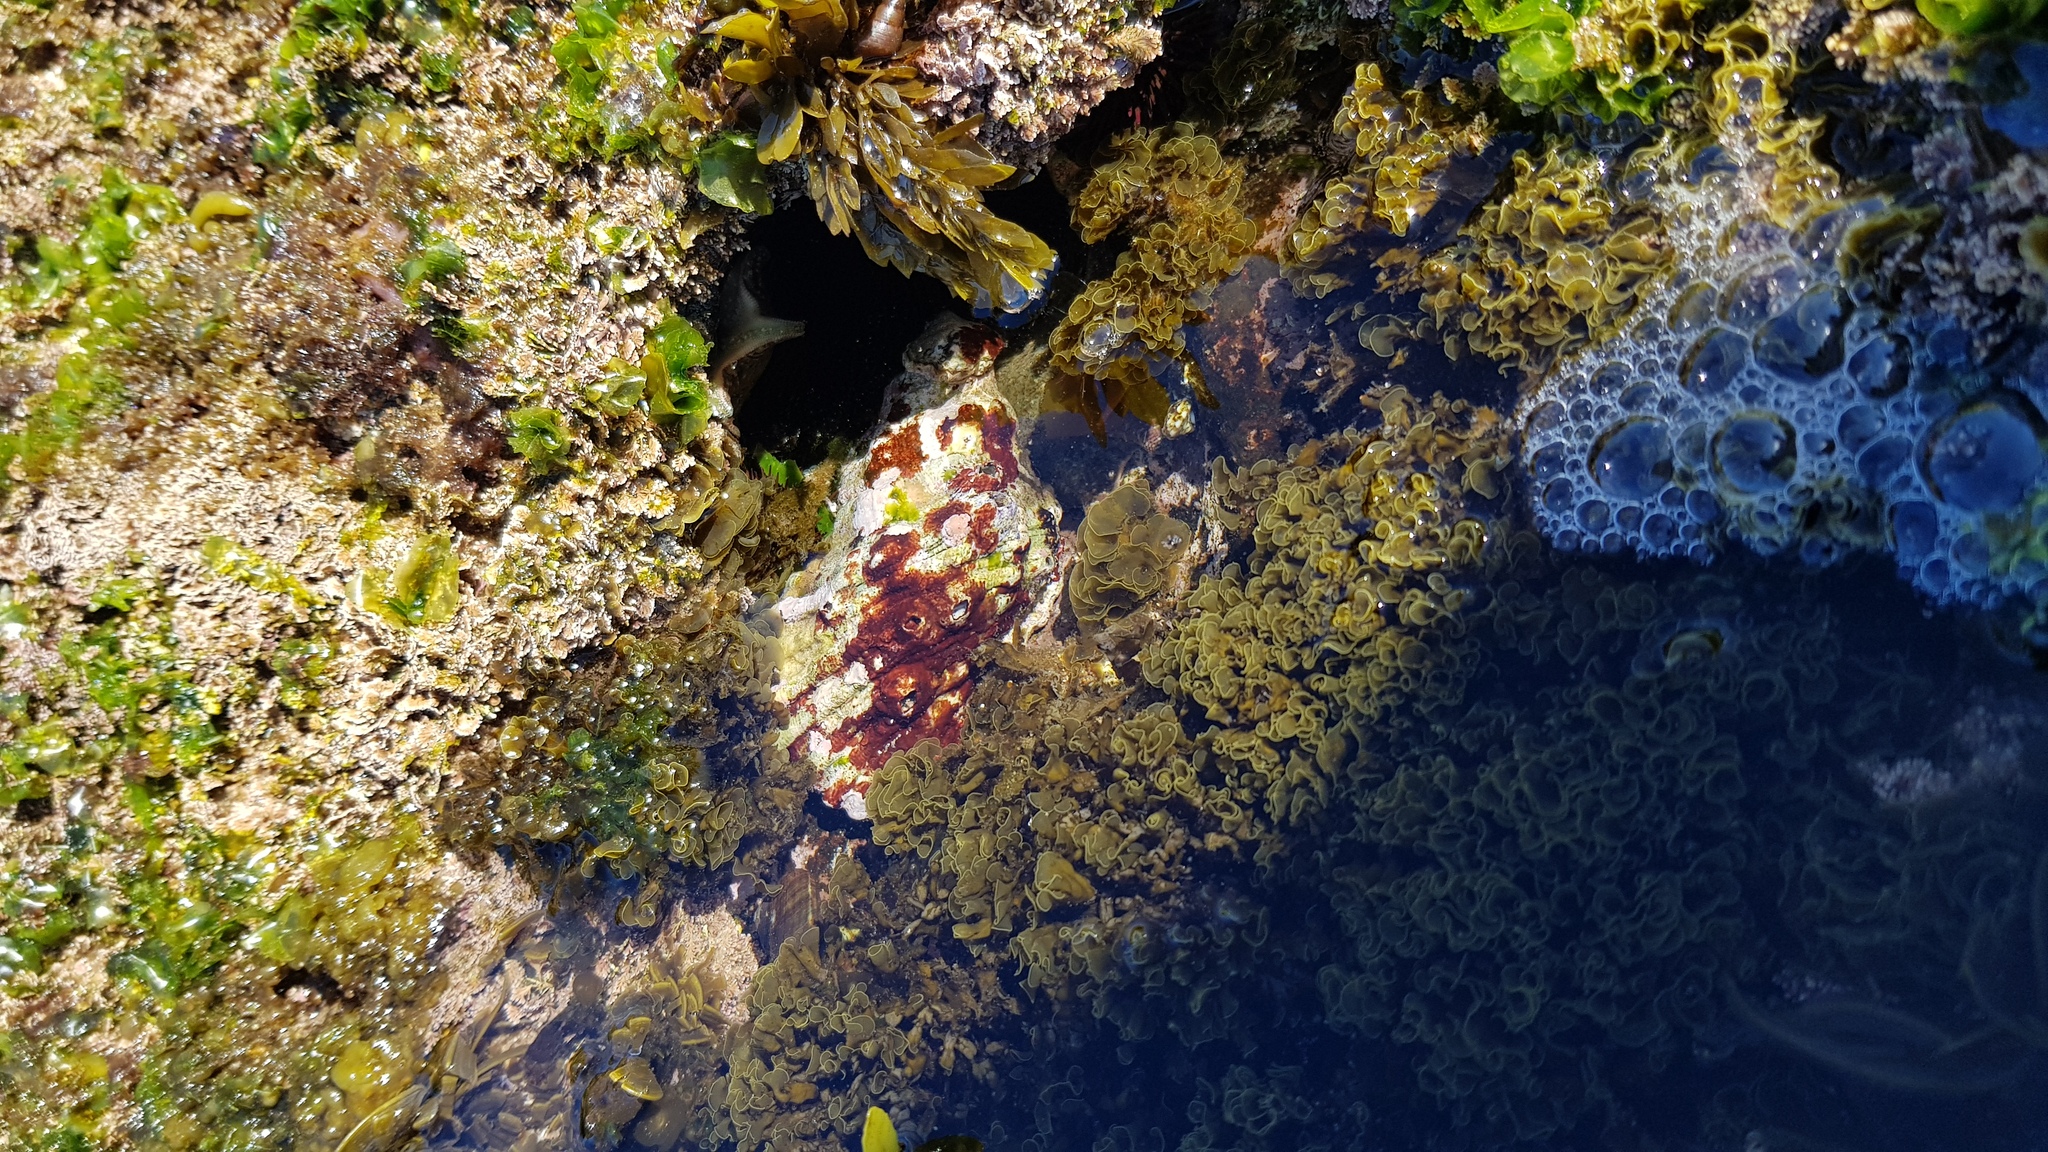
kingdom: Animalia
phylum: Mollusca
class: Gastropoda
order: Littorinimorpha
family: Cymatiidae
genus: Cabestana
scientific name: Cabestana spengleri
